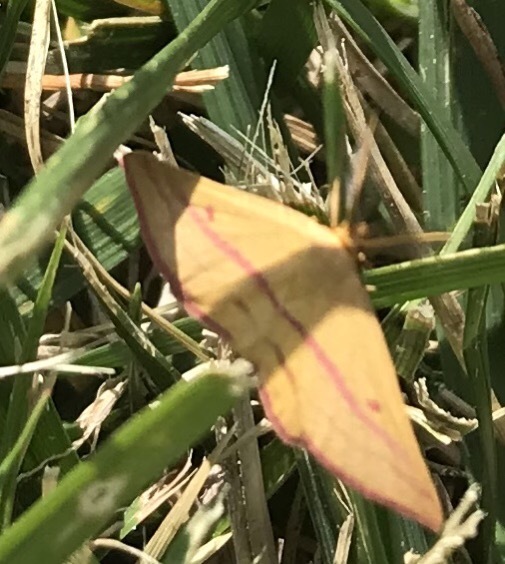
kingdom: Animalia
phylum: Arthropoda
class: Insecta
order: Lepidoptera
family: Geometridae
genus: Haematopis
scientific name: Haematopis grataria
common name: Chickweed geometer
